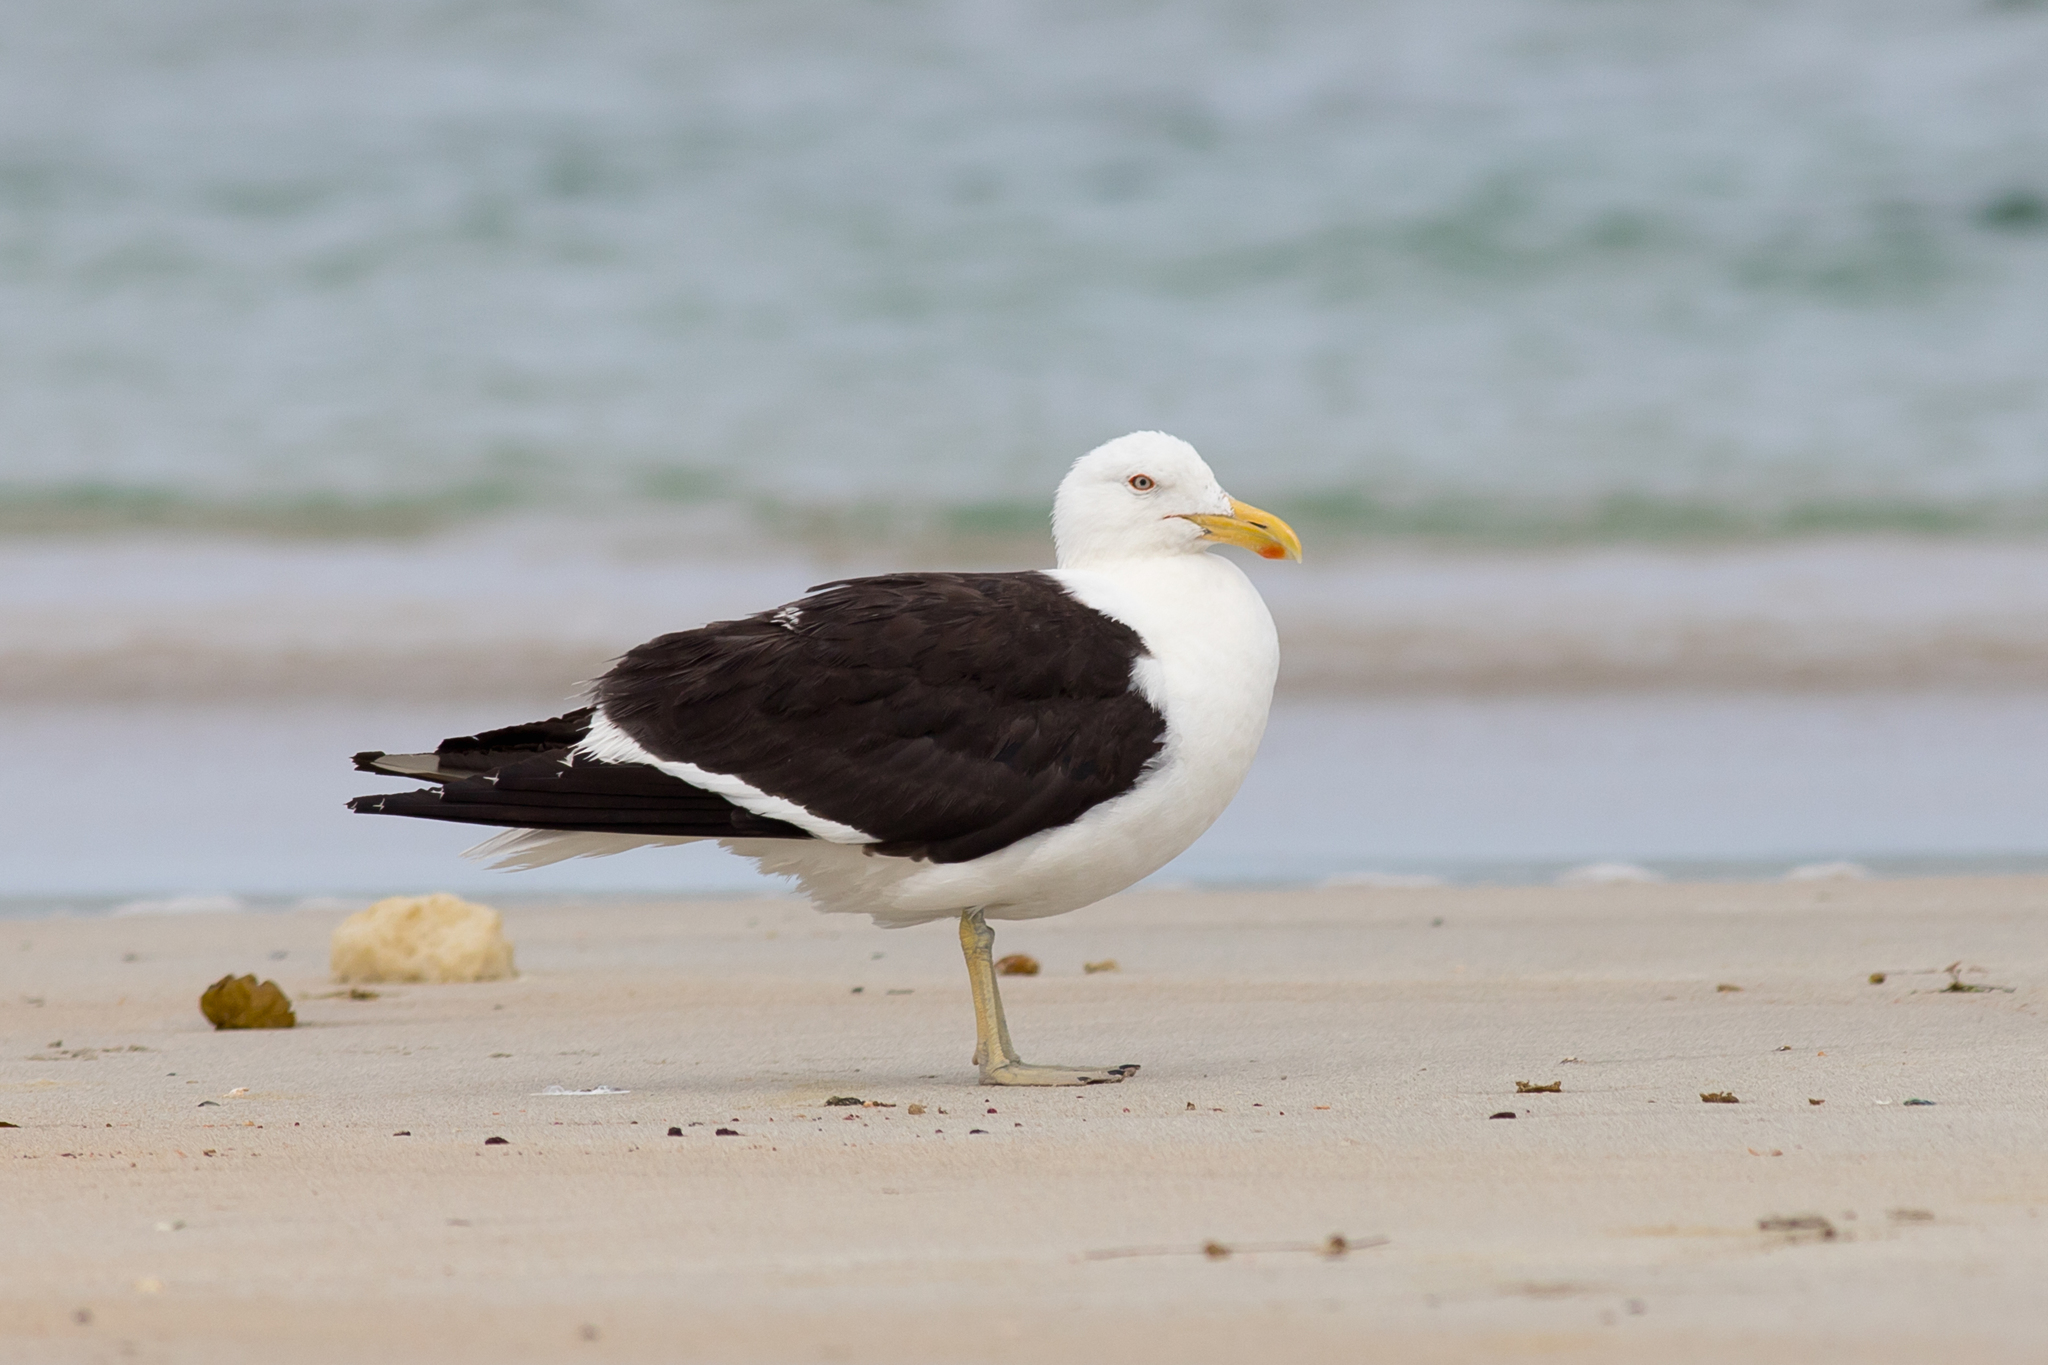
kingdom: Animalia
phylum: Chordata
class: Aves
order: Charadriiformes
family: Laridae
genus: Larus
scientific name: Larus dominicanus
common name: Kelp gull
